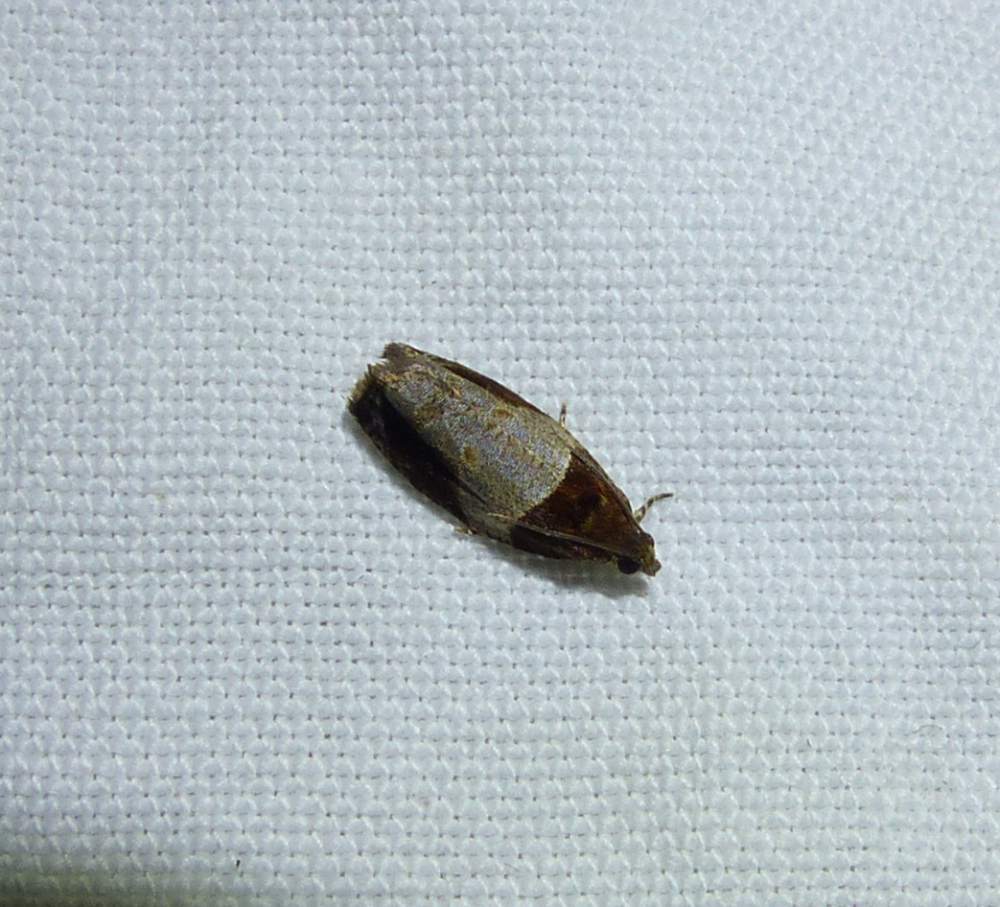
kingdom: Animalia
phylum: Arthropoda
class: Insecta
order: Lepidoptera
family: Tortricidae
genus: Olethreutes
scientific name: Olethreutes ferriferana
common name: Hydrangea leaftier moth
